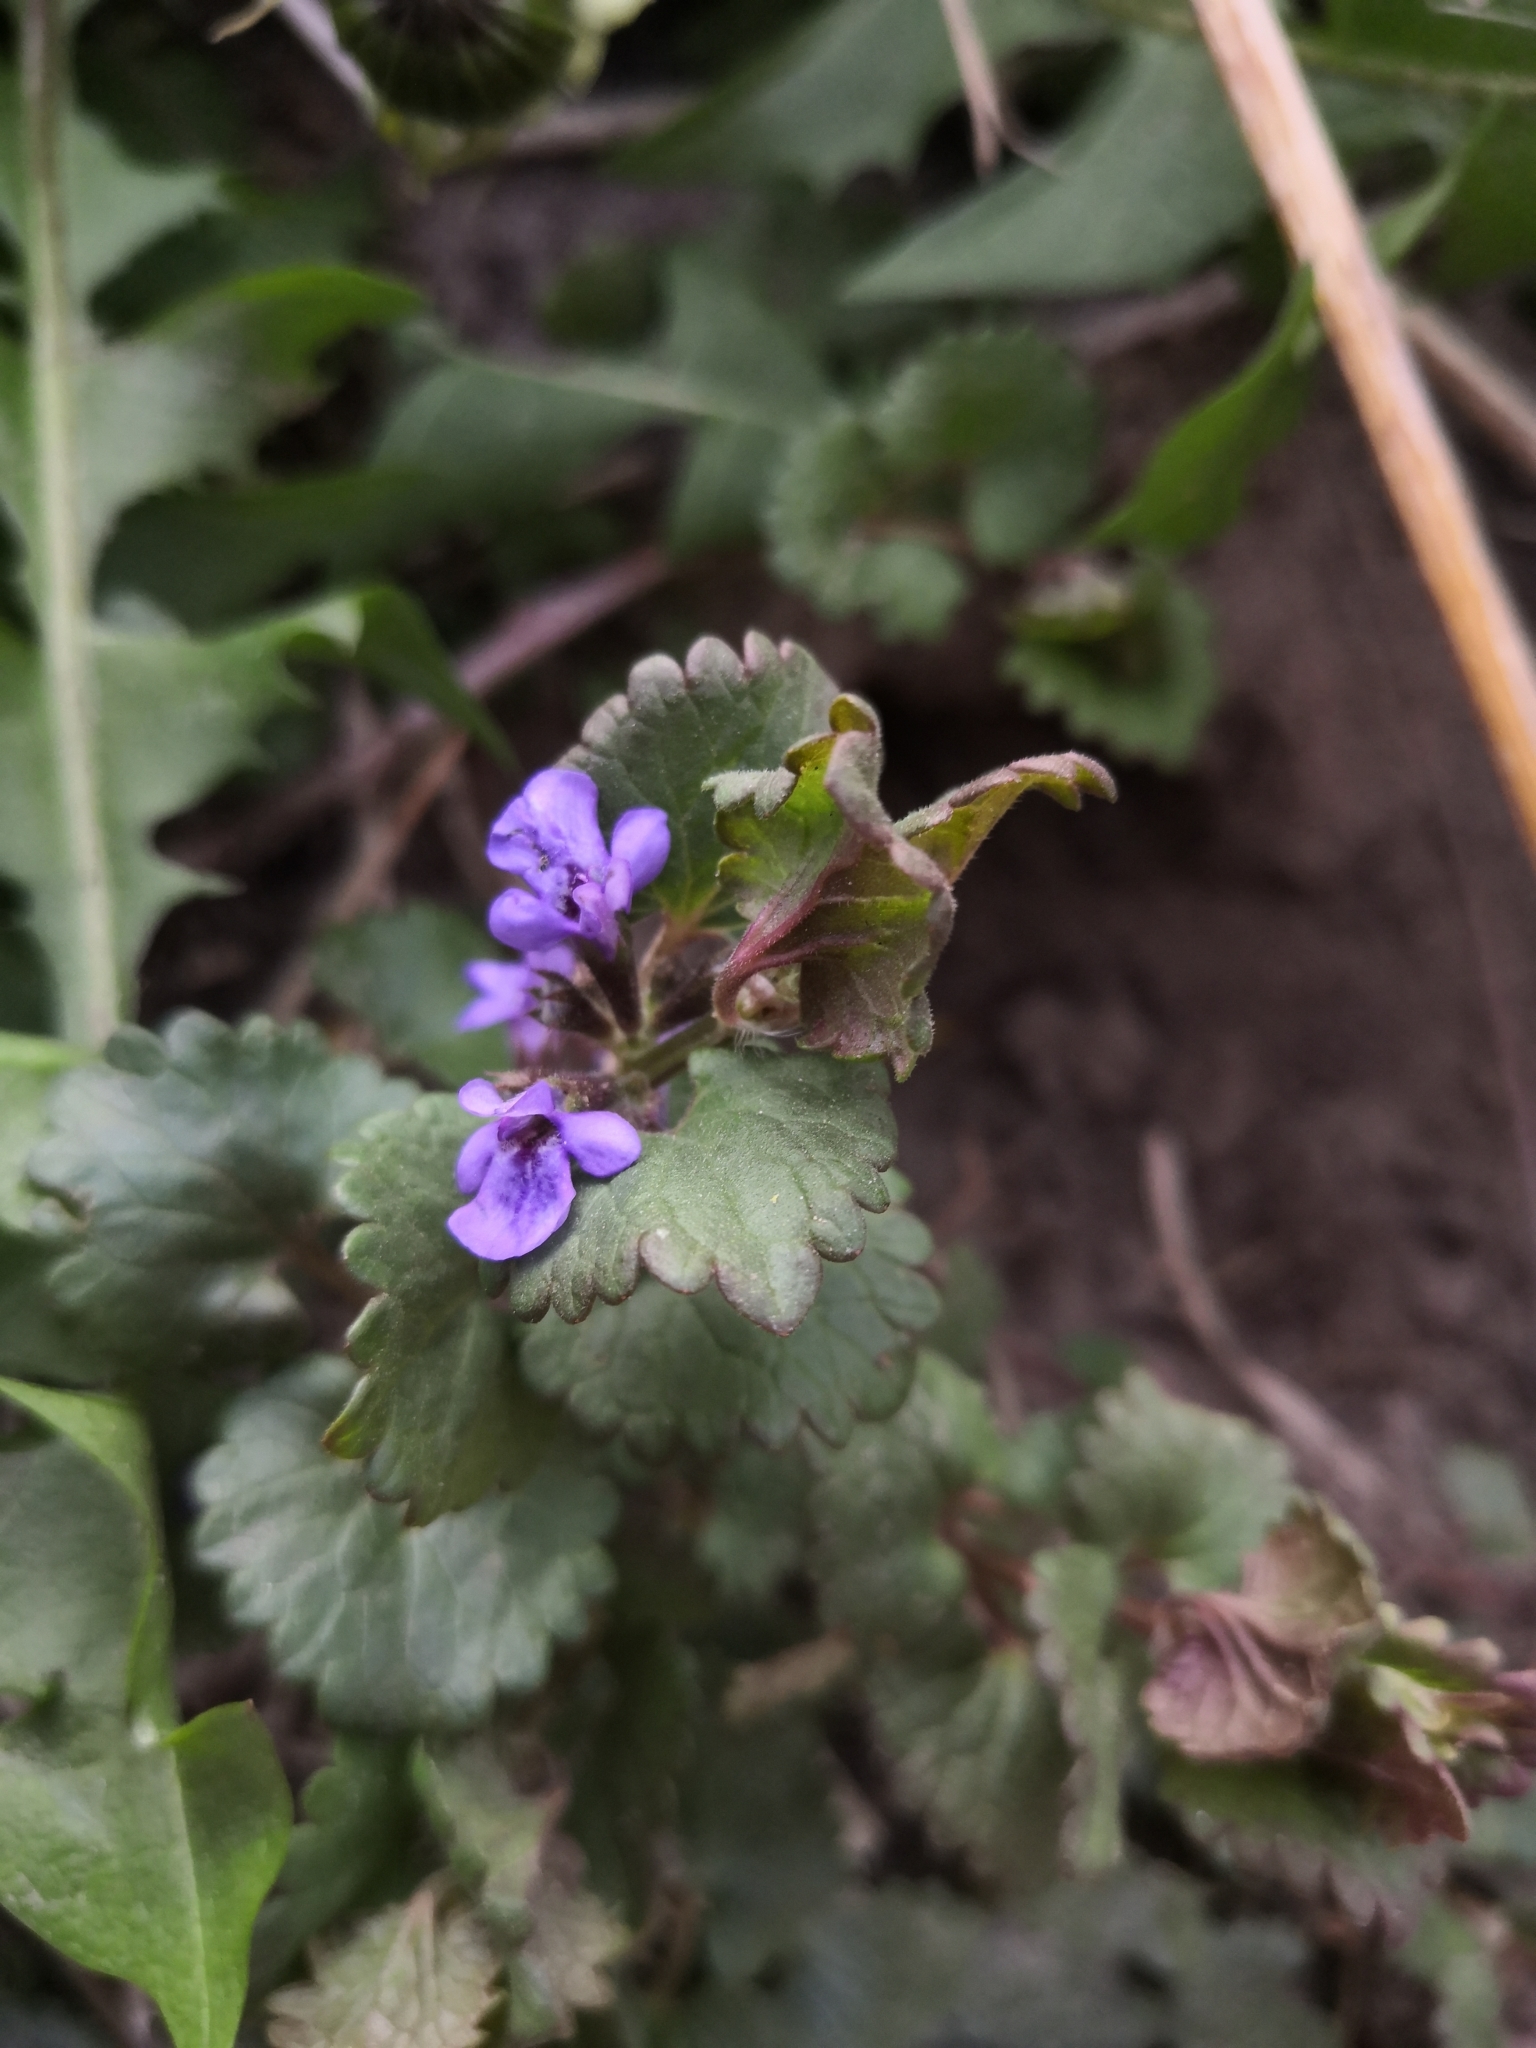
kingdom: Plantae
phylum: Tracheophyta
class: Magnoliopsida
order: Lamiales
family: Lamiaceae
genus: Glechoma
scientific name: Glechoma hederacea
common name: Ground ivy
